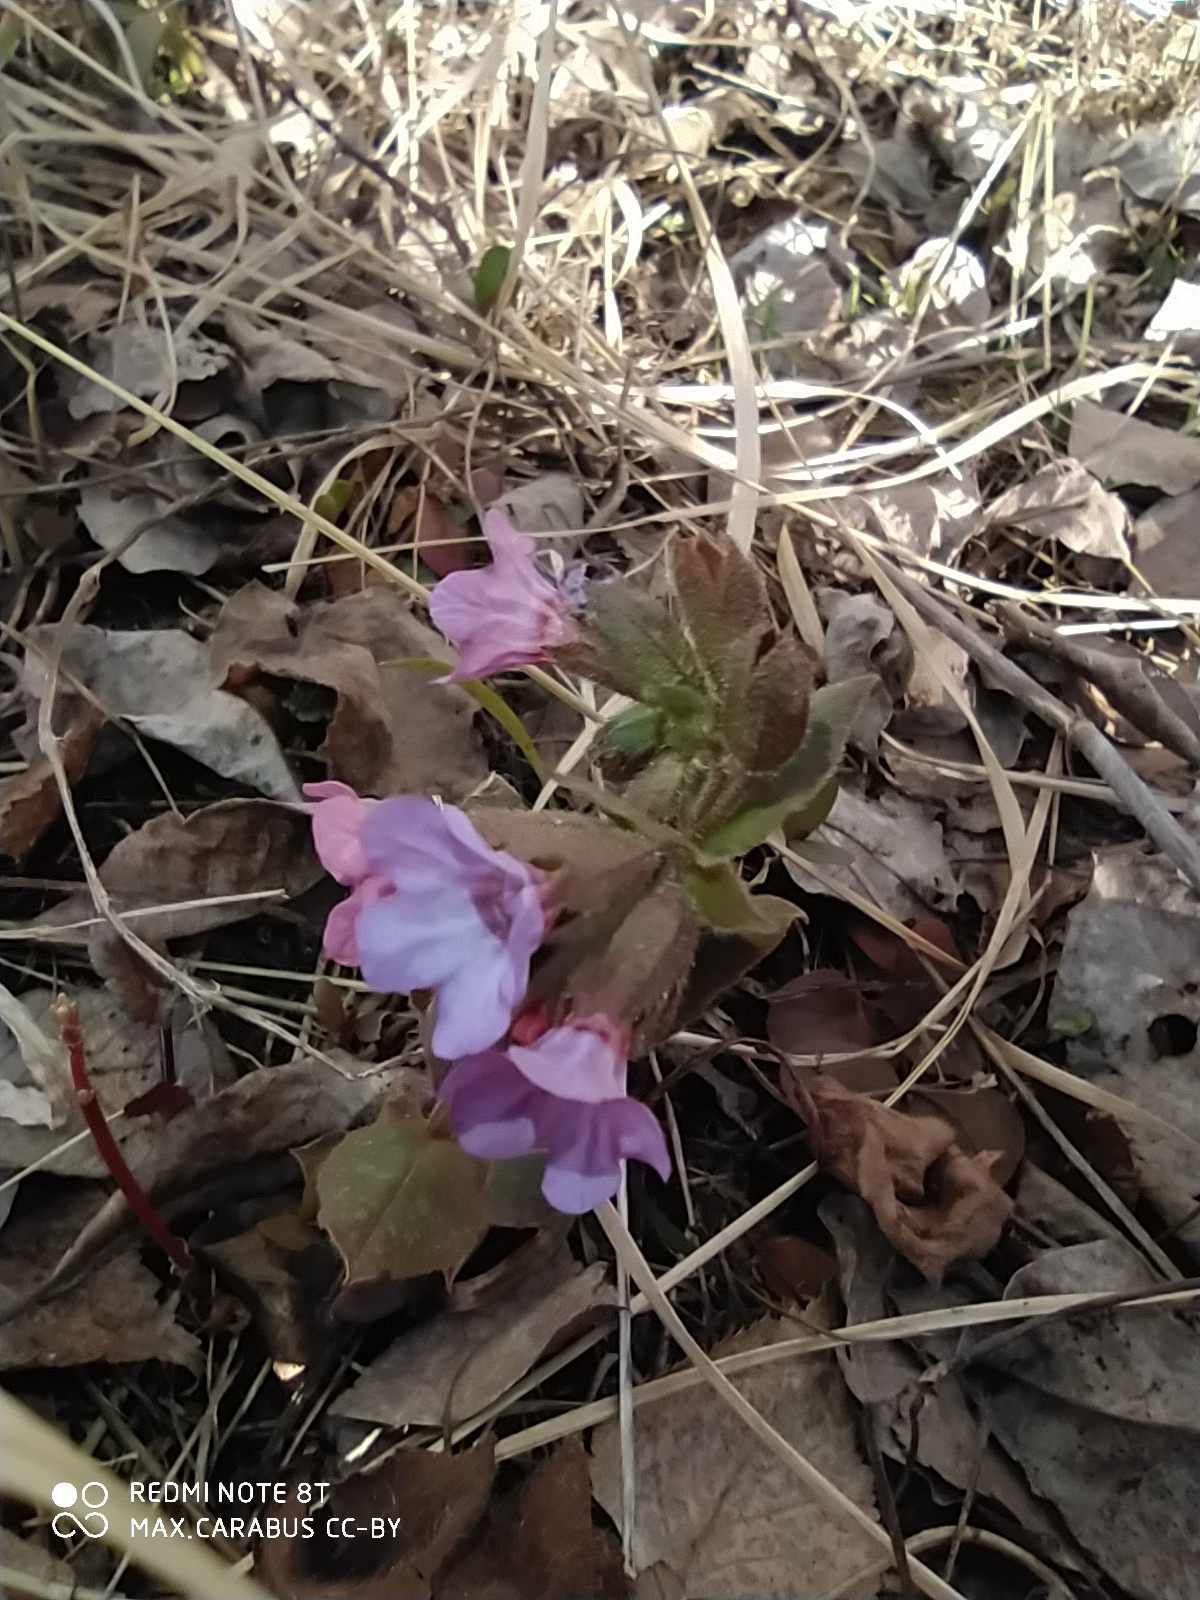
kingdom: Plantae
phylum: Tracheophyta
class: Magnoliopsida
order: Boraginales
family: Boraginaceae
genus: Pulmonaria
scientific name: Pulmonaria obscura
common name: Suffolk lungwort
